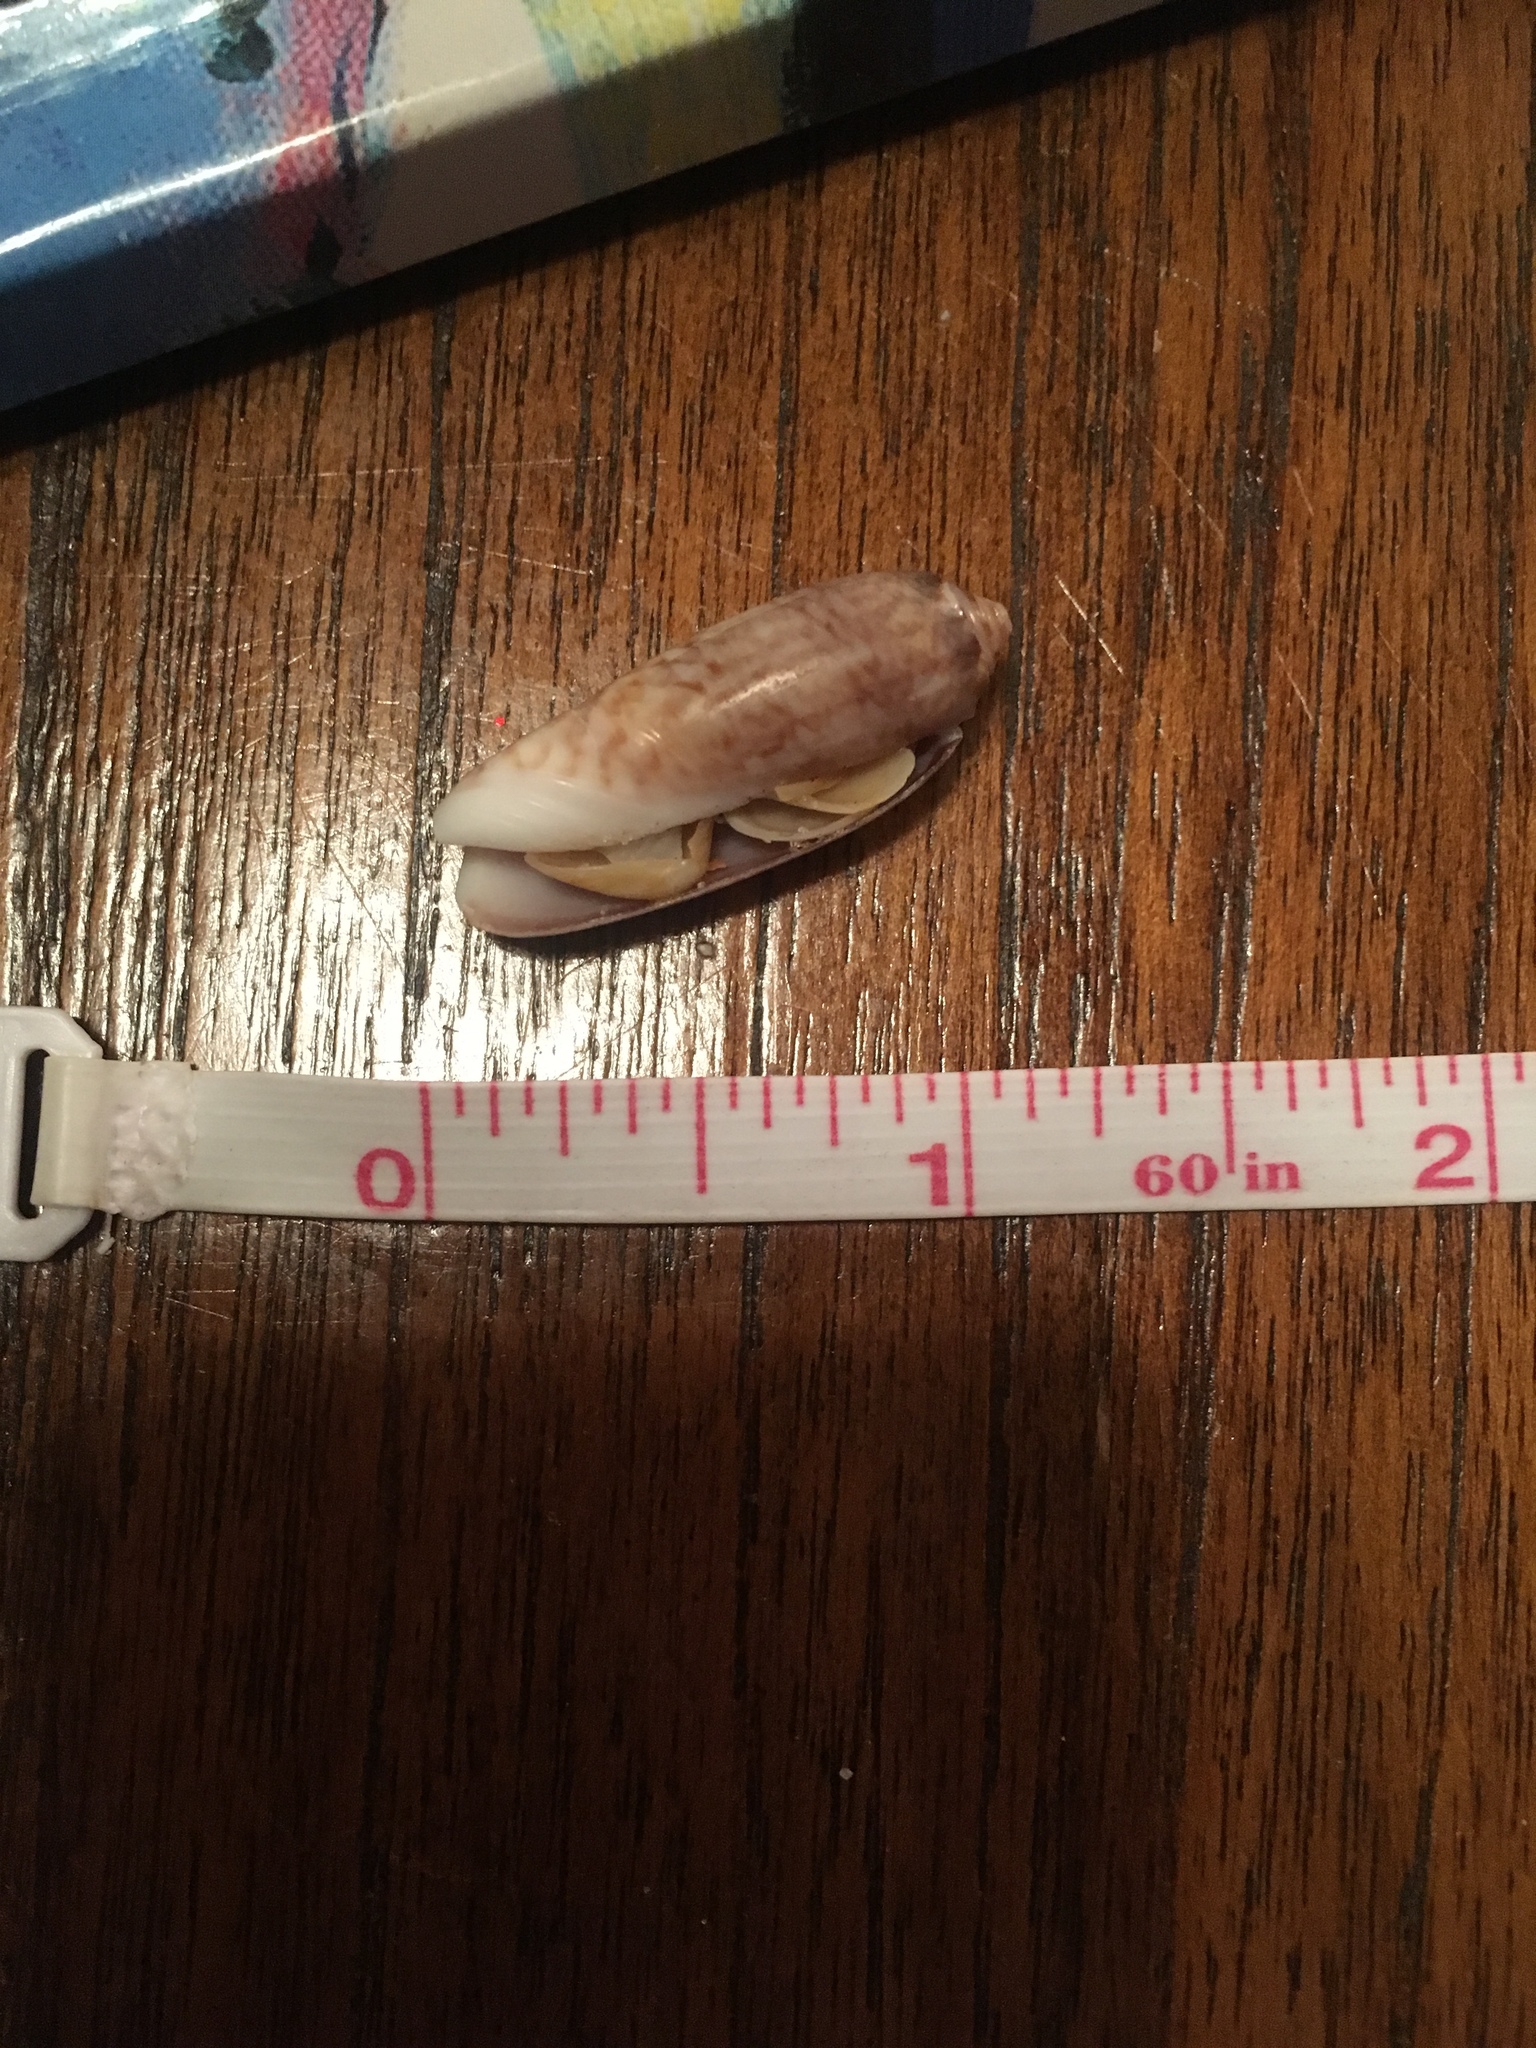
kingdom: Animalia
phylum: Mollusca
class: Gastropoda
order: Neogastropoda
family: Olividae
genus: Oliva
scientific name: Oliva sayana
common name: Lettered olive
